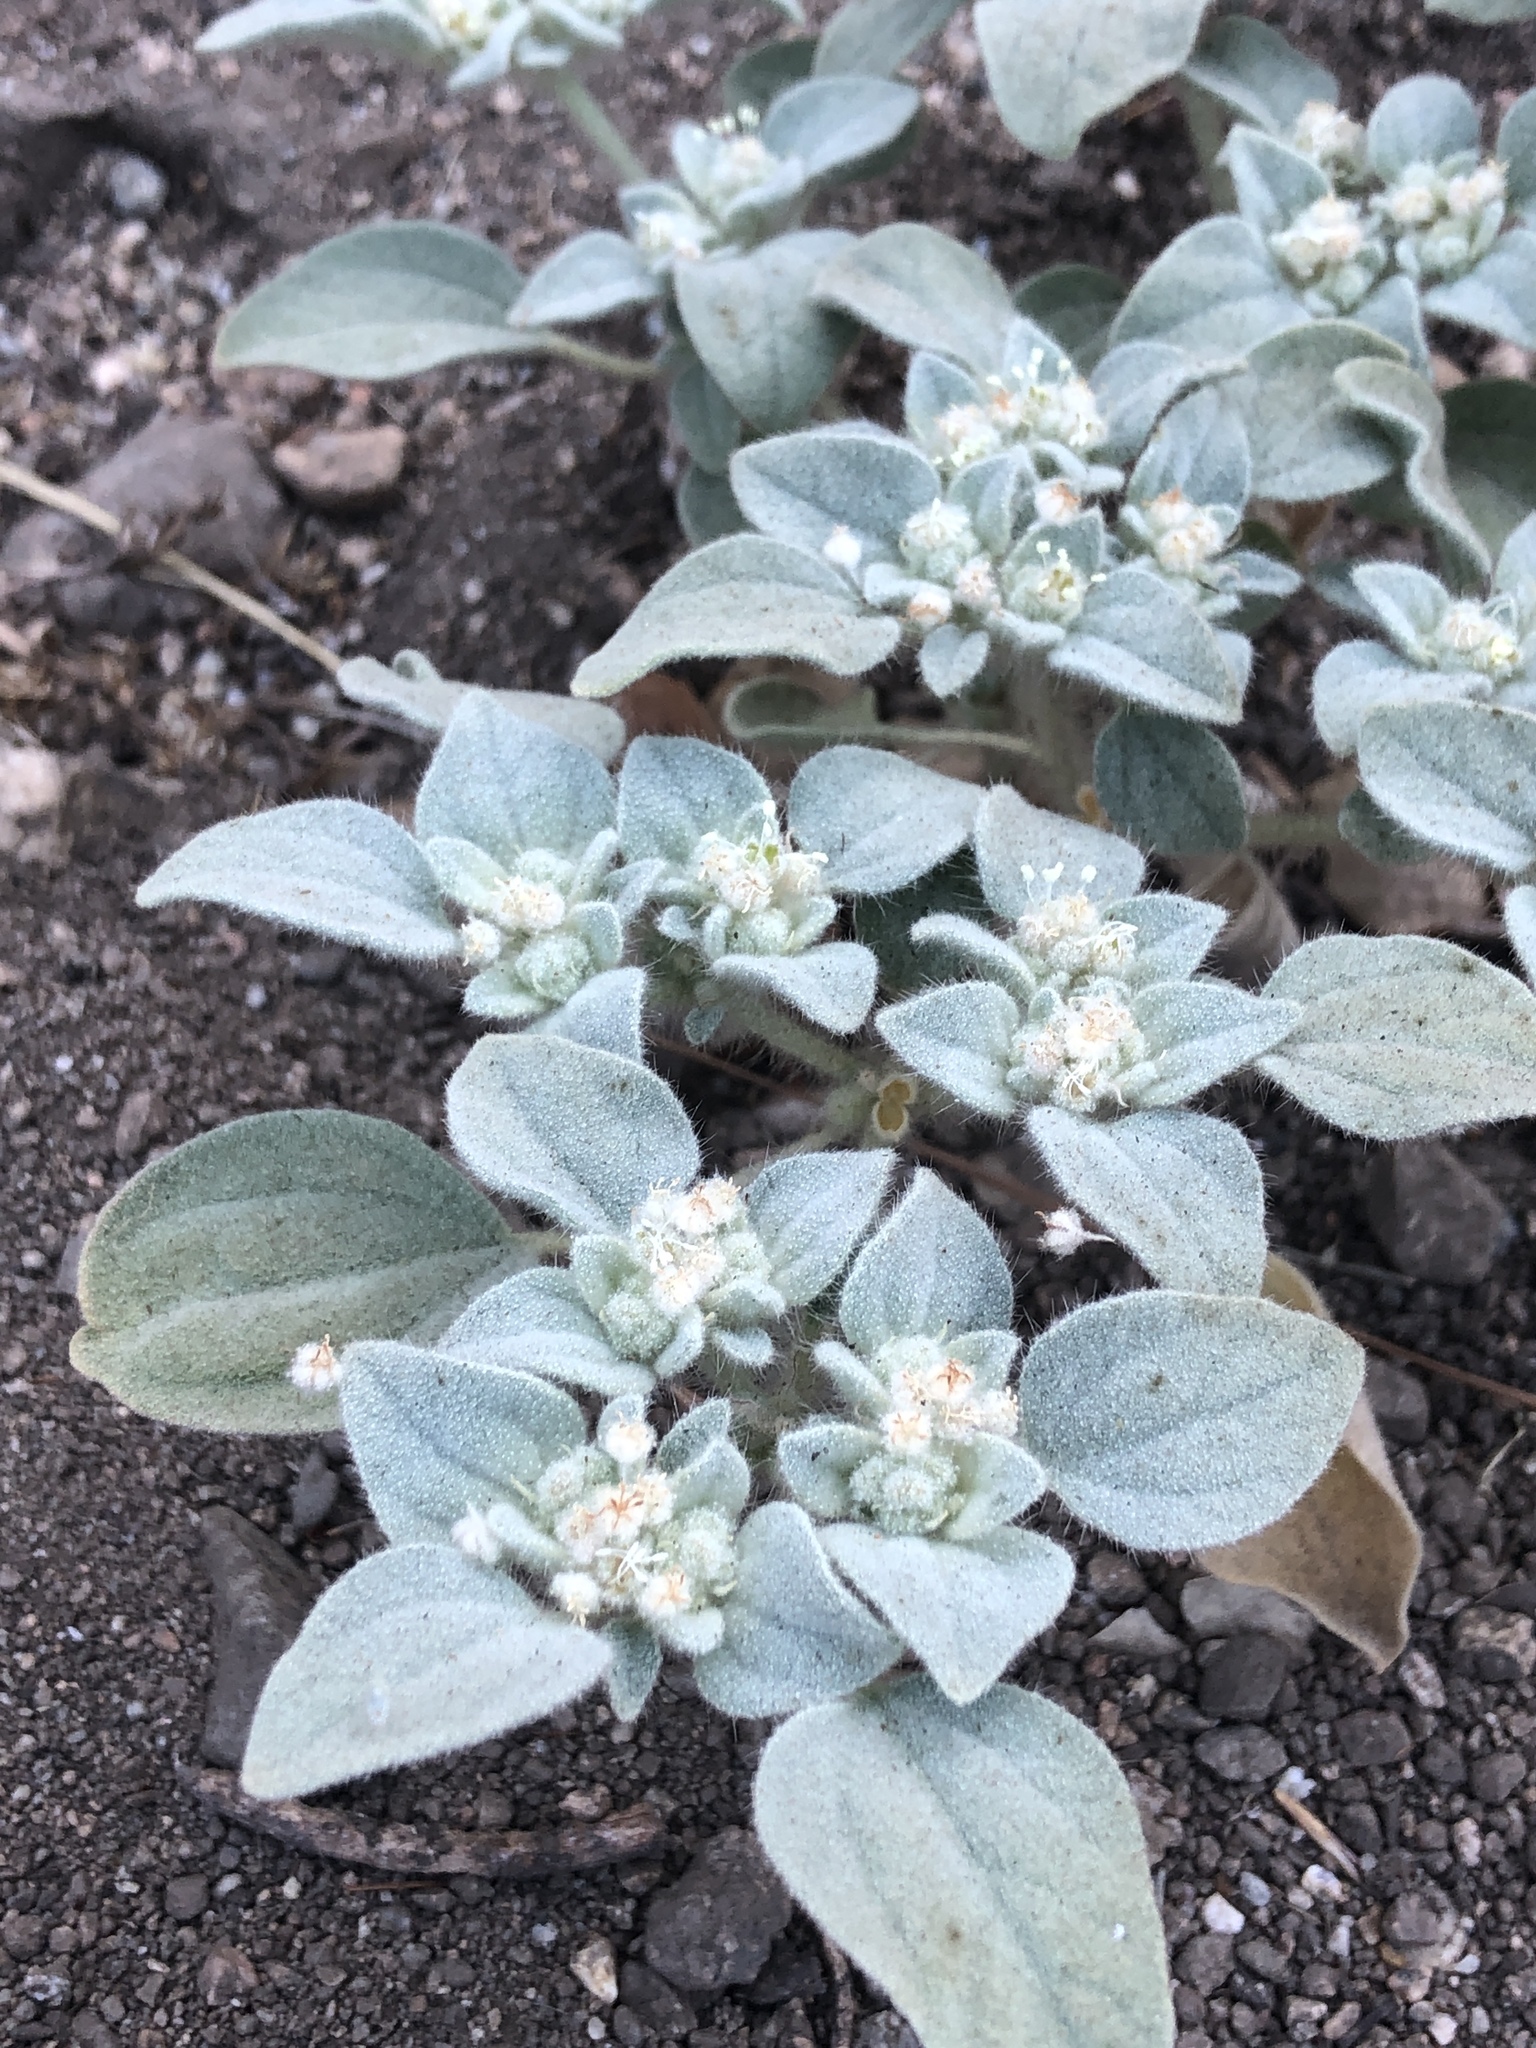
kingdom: Plantae
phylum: Tracheophyta
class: Magnoliopsida
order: Malpighiales
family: Euphorbiaceae
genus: Croton
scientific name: Croton setiger
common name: Dove weed
